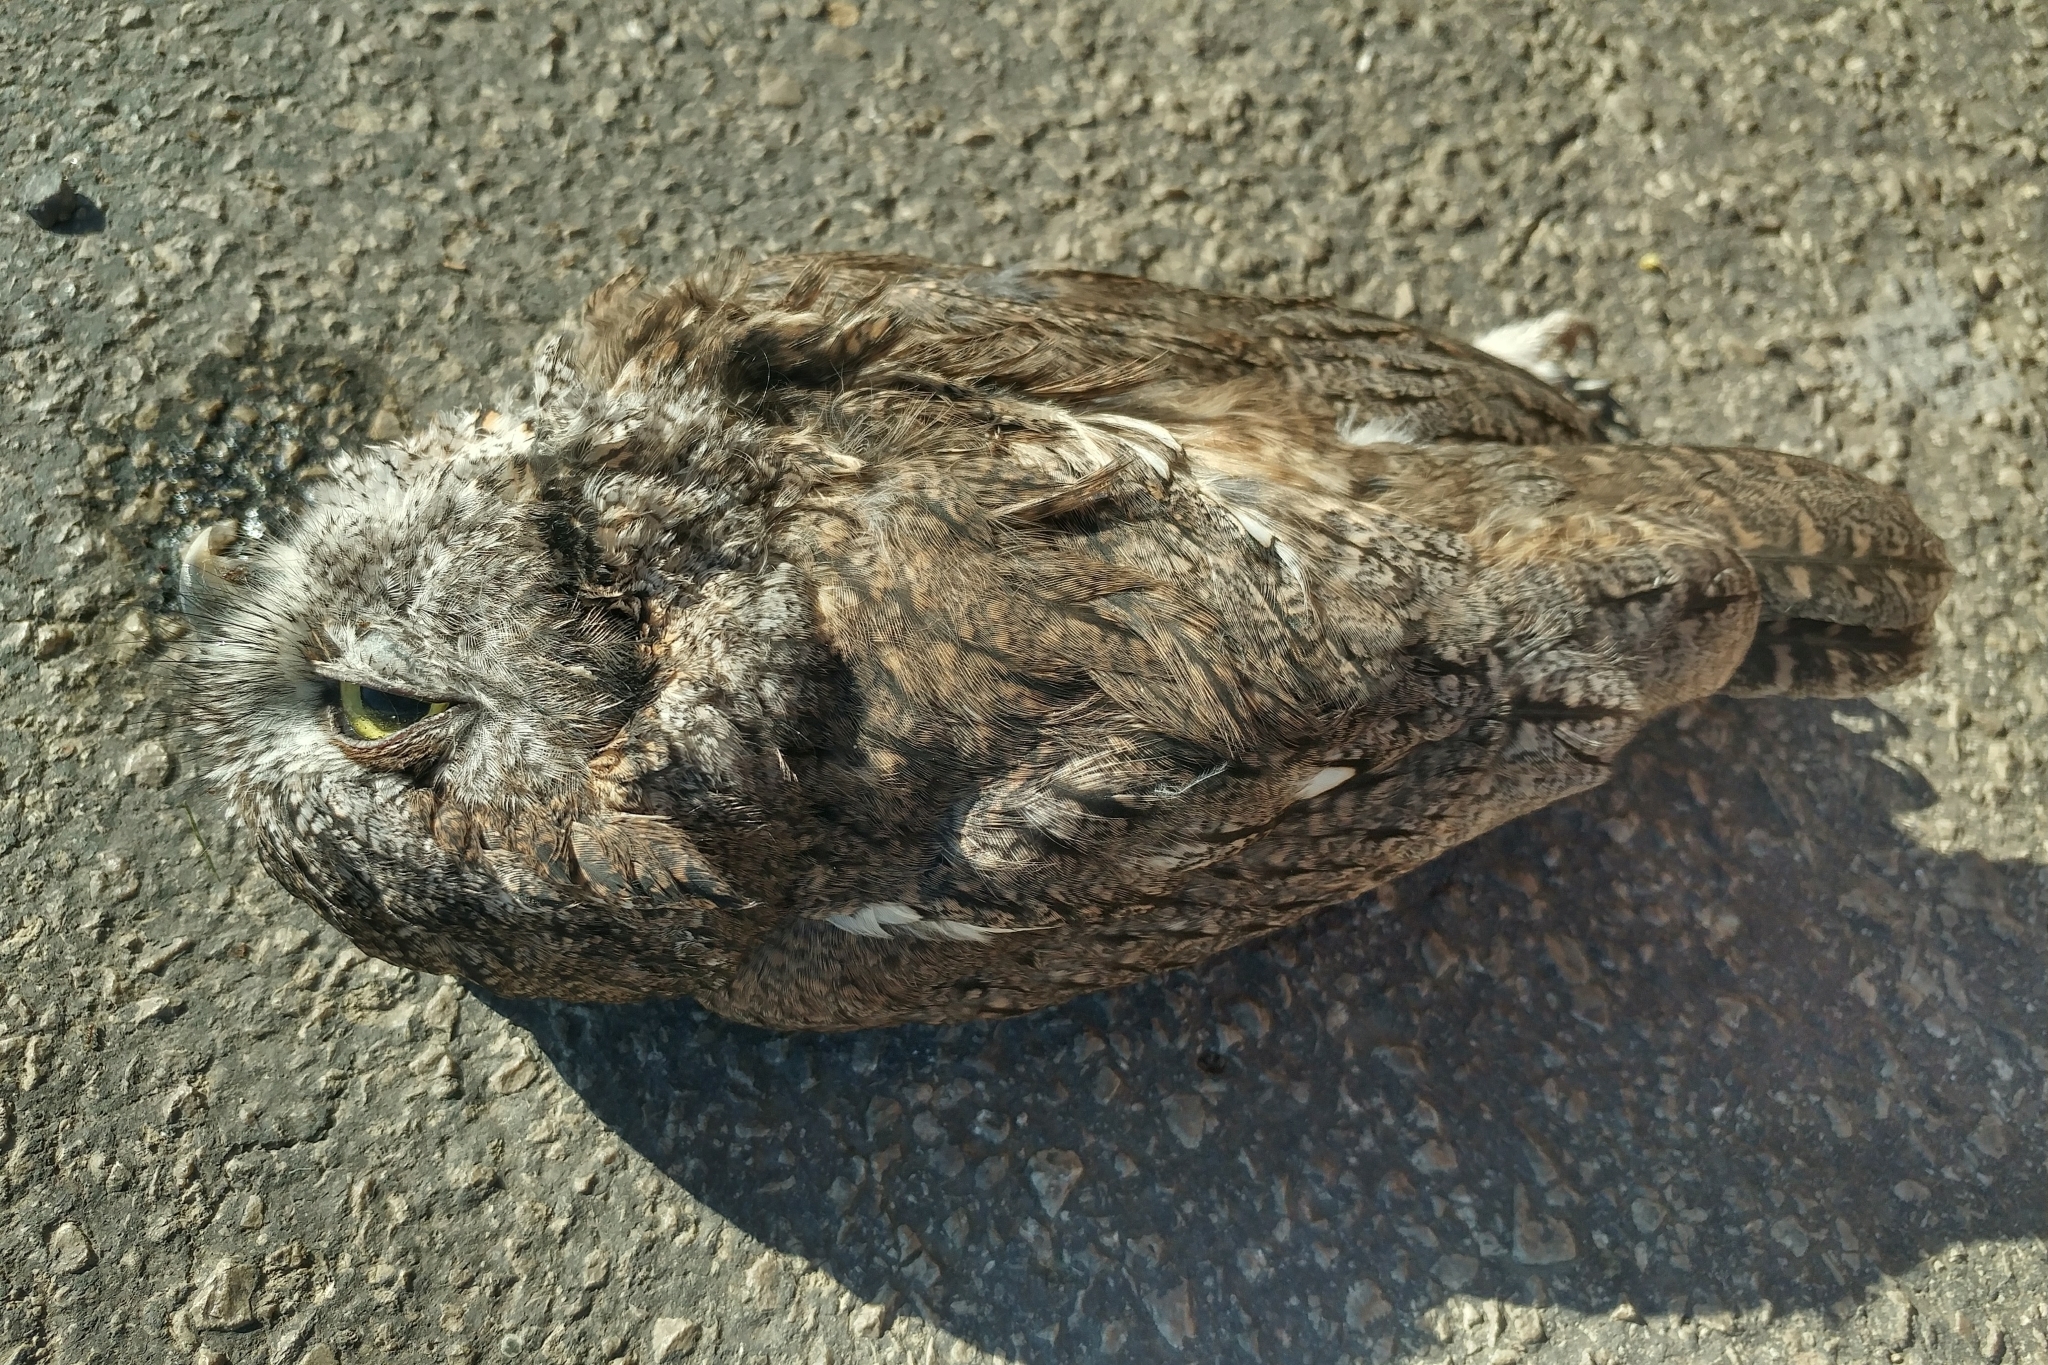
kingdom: Animalia
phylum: Chordata
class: Aves
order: Strigiformes
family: Strigidae
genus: Megascops
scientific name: Megascops kennicottii
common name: Western screech-owl
